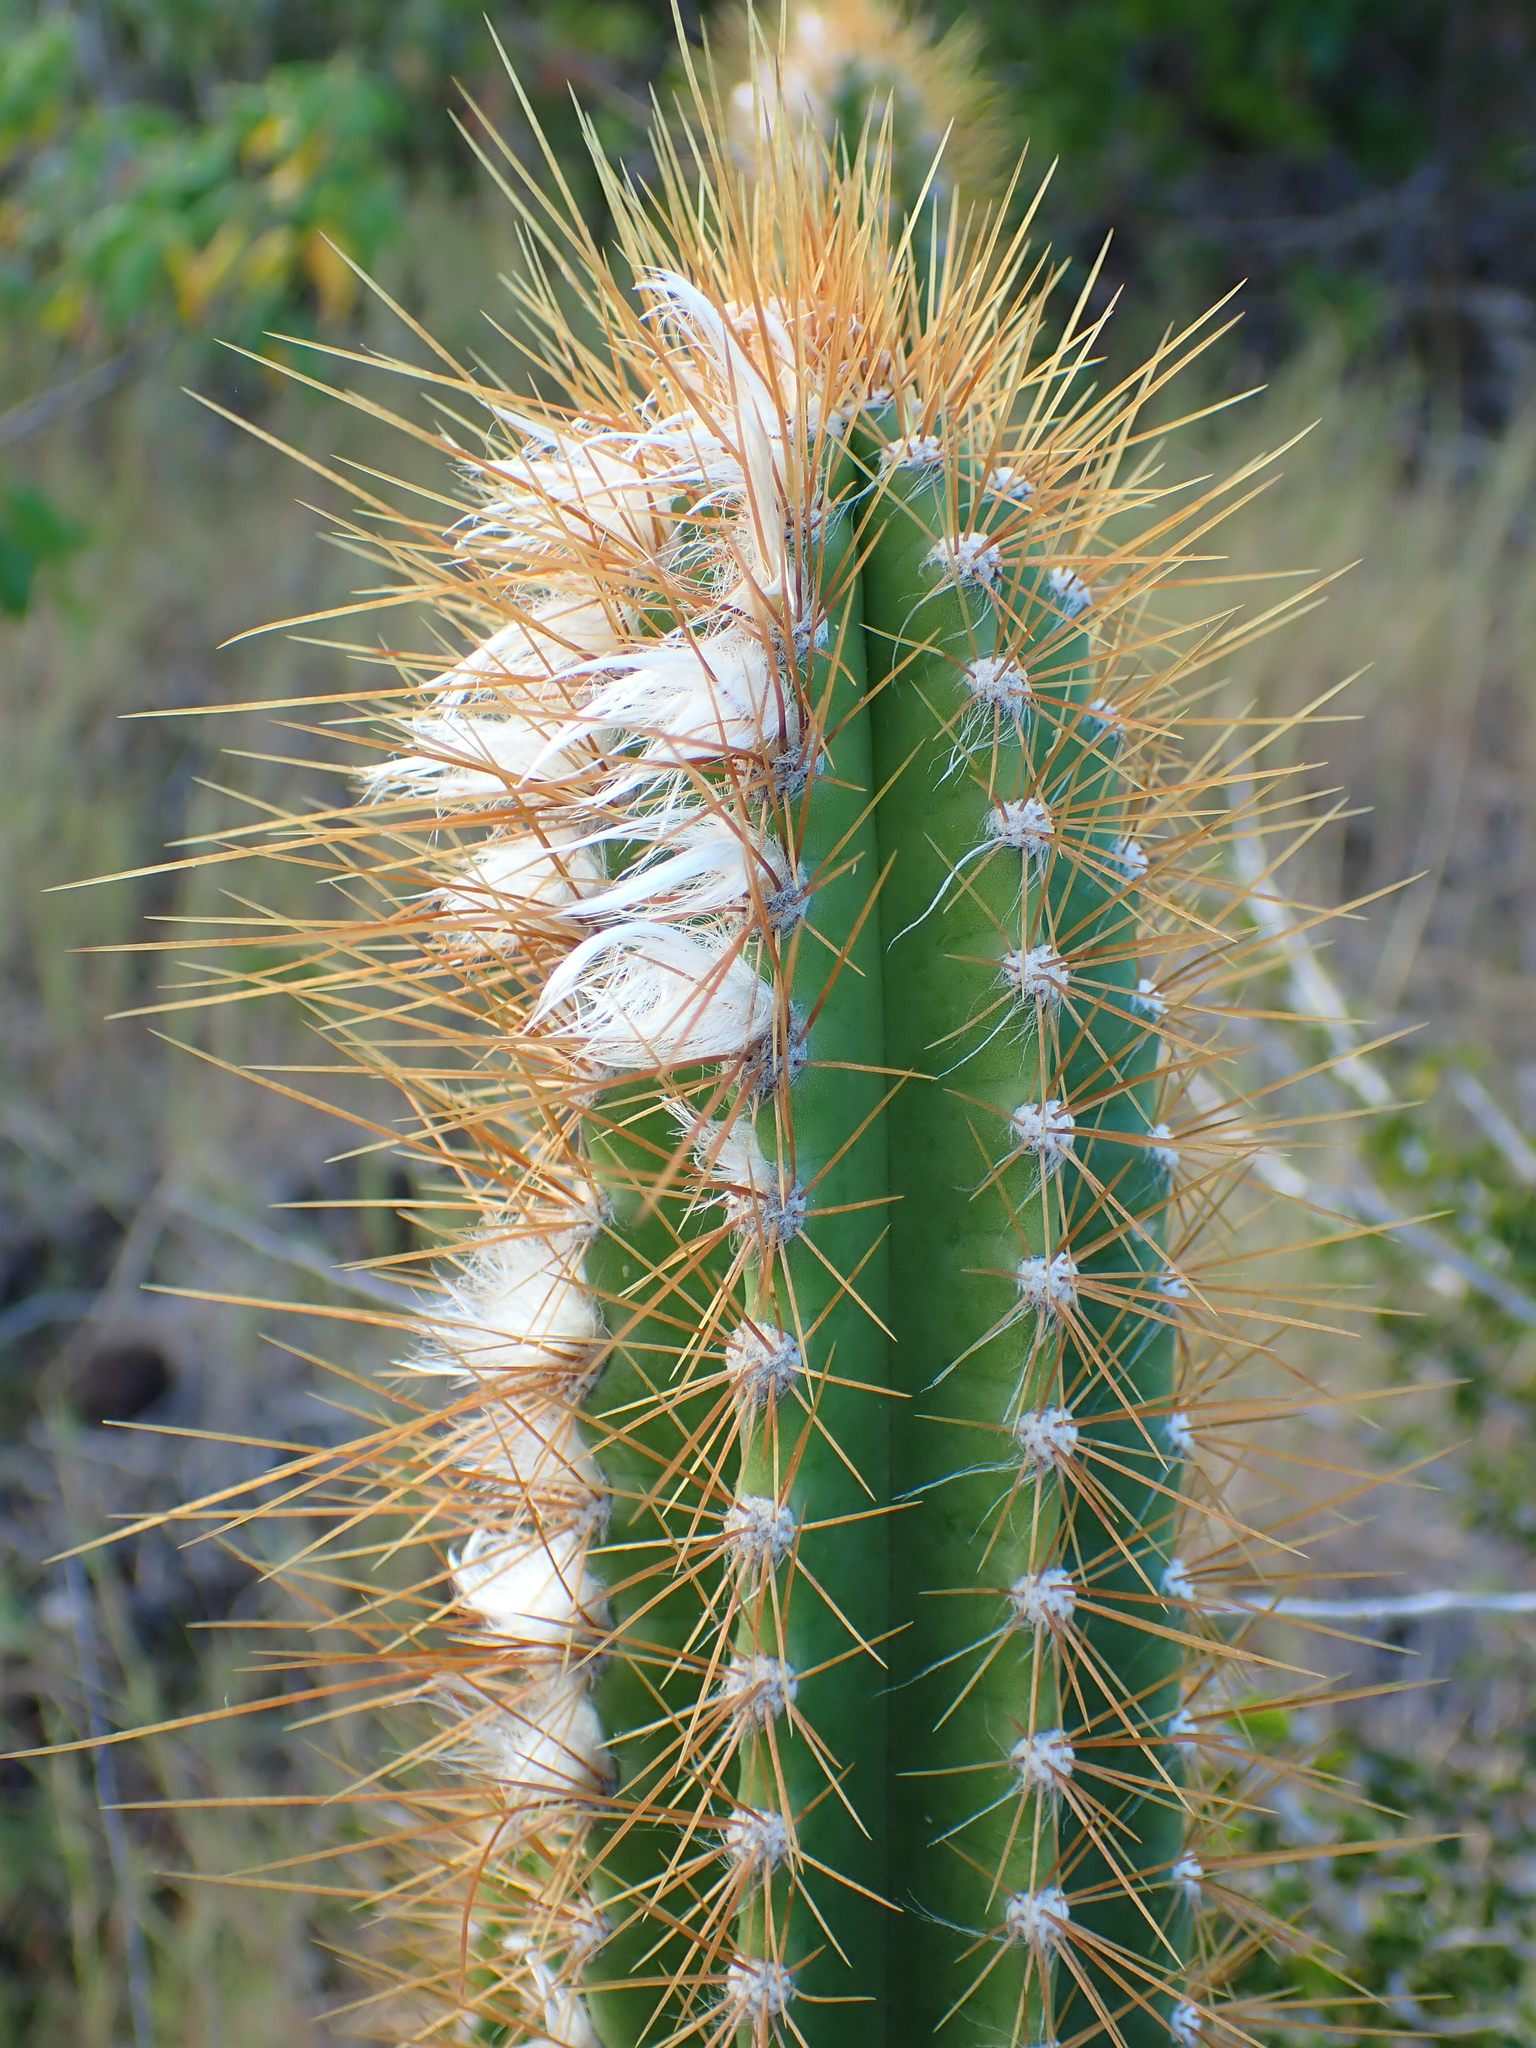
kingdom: Plantae
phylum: Tracheophyta
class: Magnoliopsida
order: Caryophyllales
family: Cactaceae
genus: Pilosocereus
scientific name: Pilosocereus curtisii
